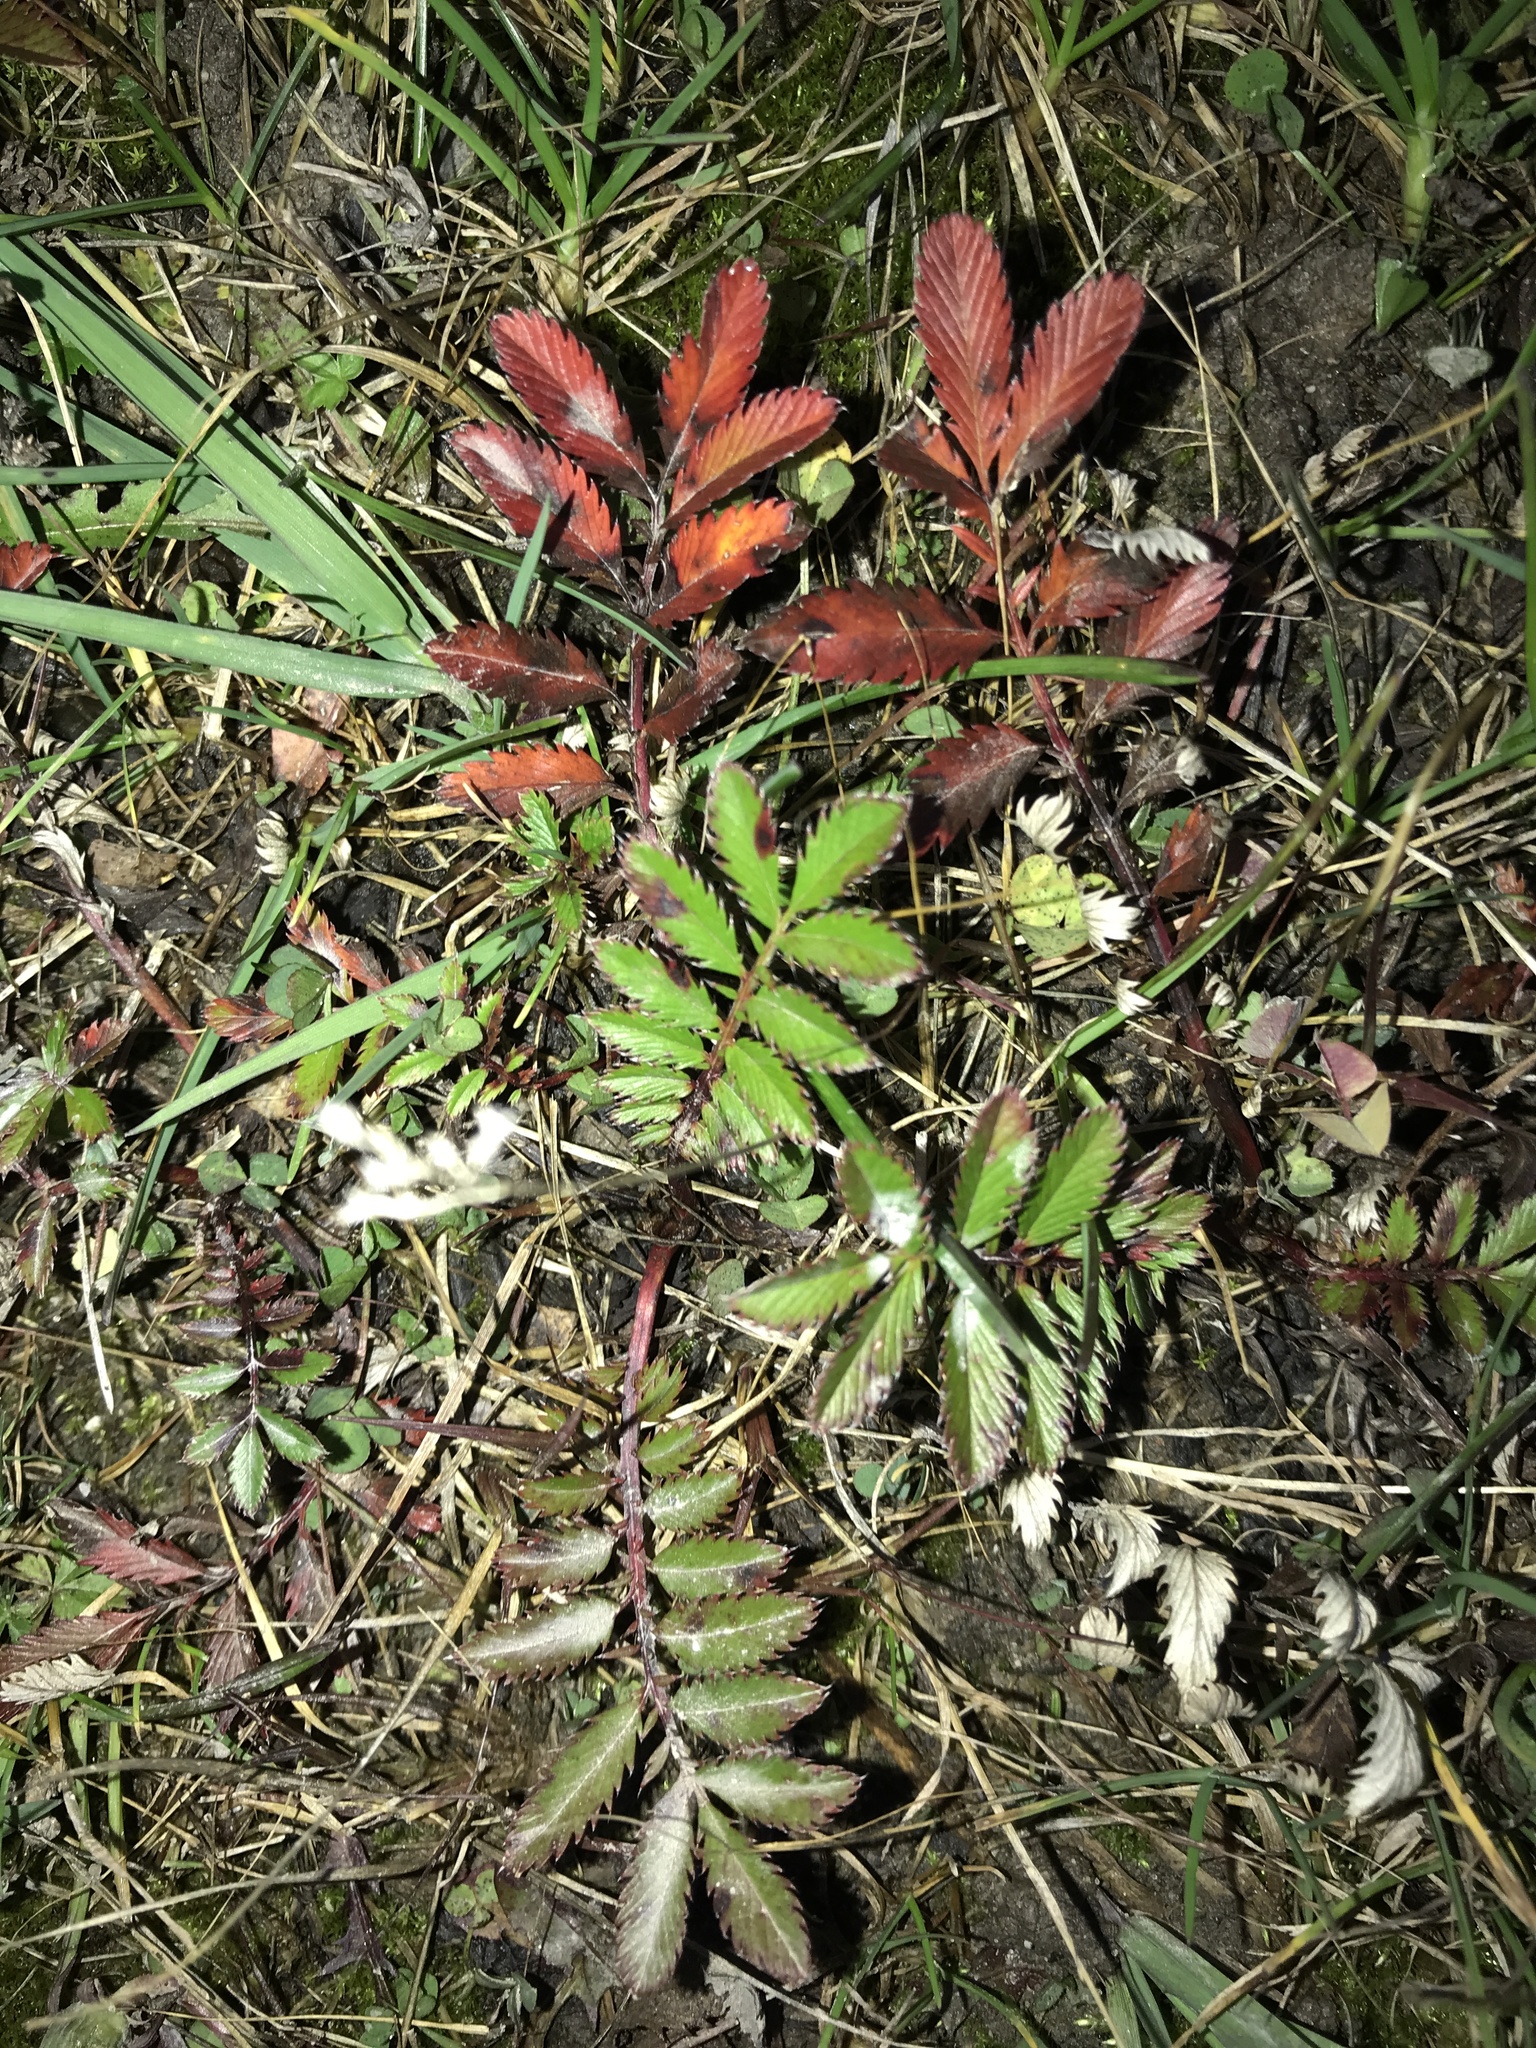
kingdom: Plantae
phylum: Tracheophyta
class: Magnoliopsida
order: Rosales
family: Rosaceae
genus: Argentina
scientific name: Argentina anserina
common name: Common silverweed
